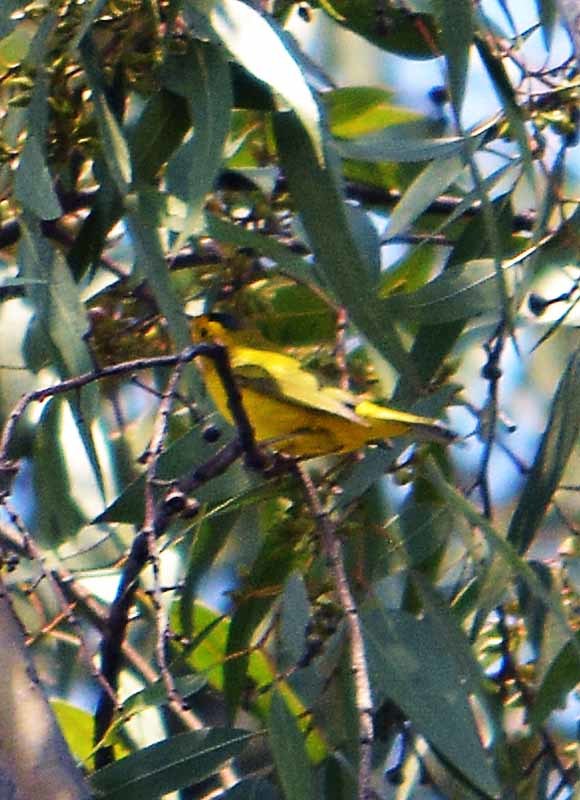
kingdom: Animalia
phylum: Chordata
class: Aves
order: Passeriformes
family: Parulidae
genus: Cardellina
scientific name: Cardellina pusilla
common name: Wilson's warbler
